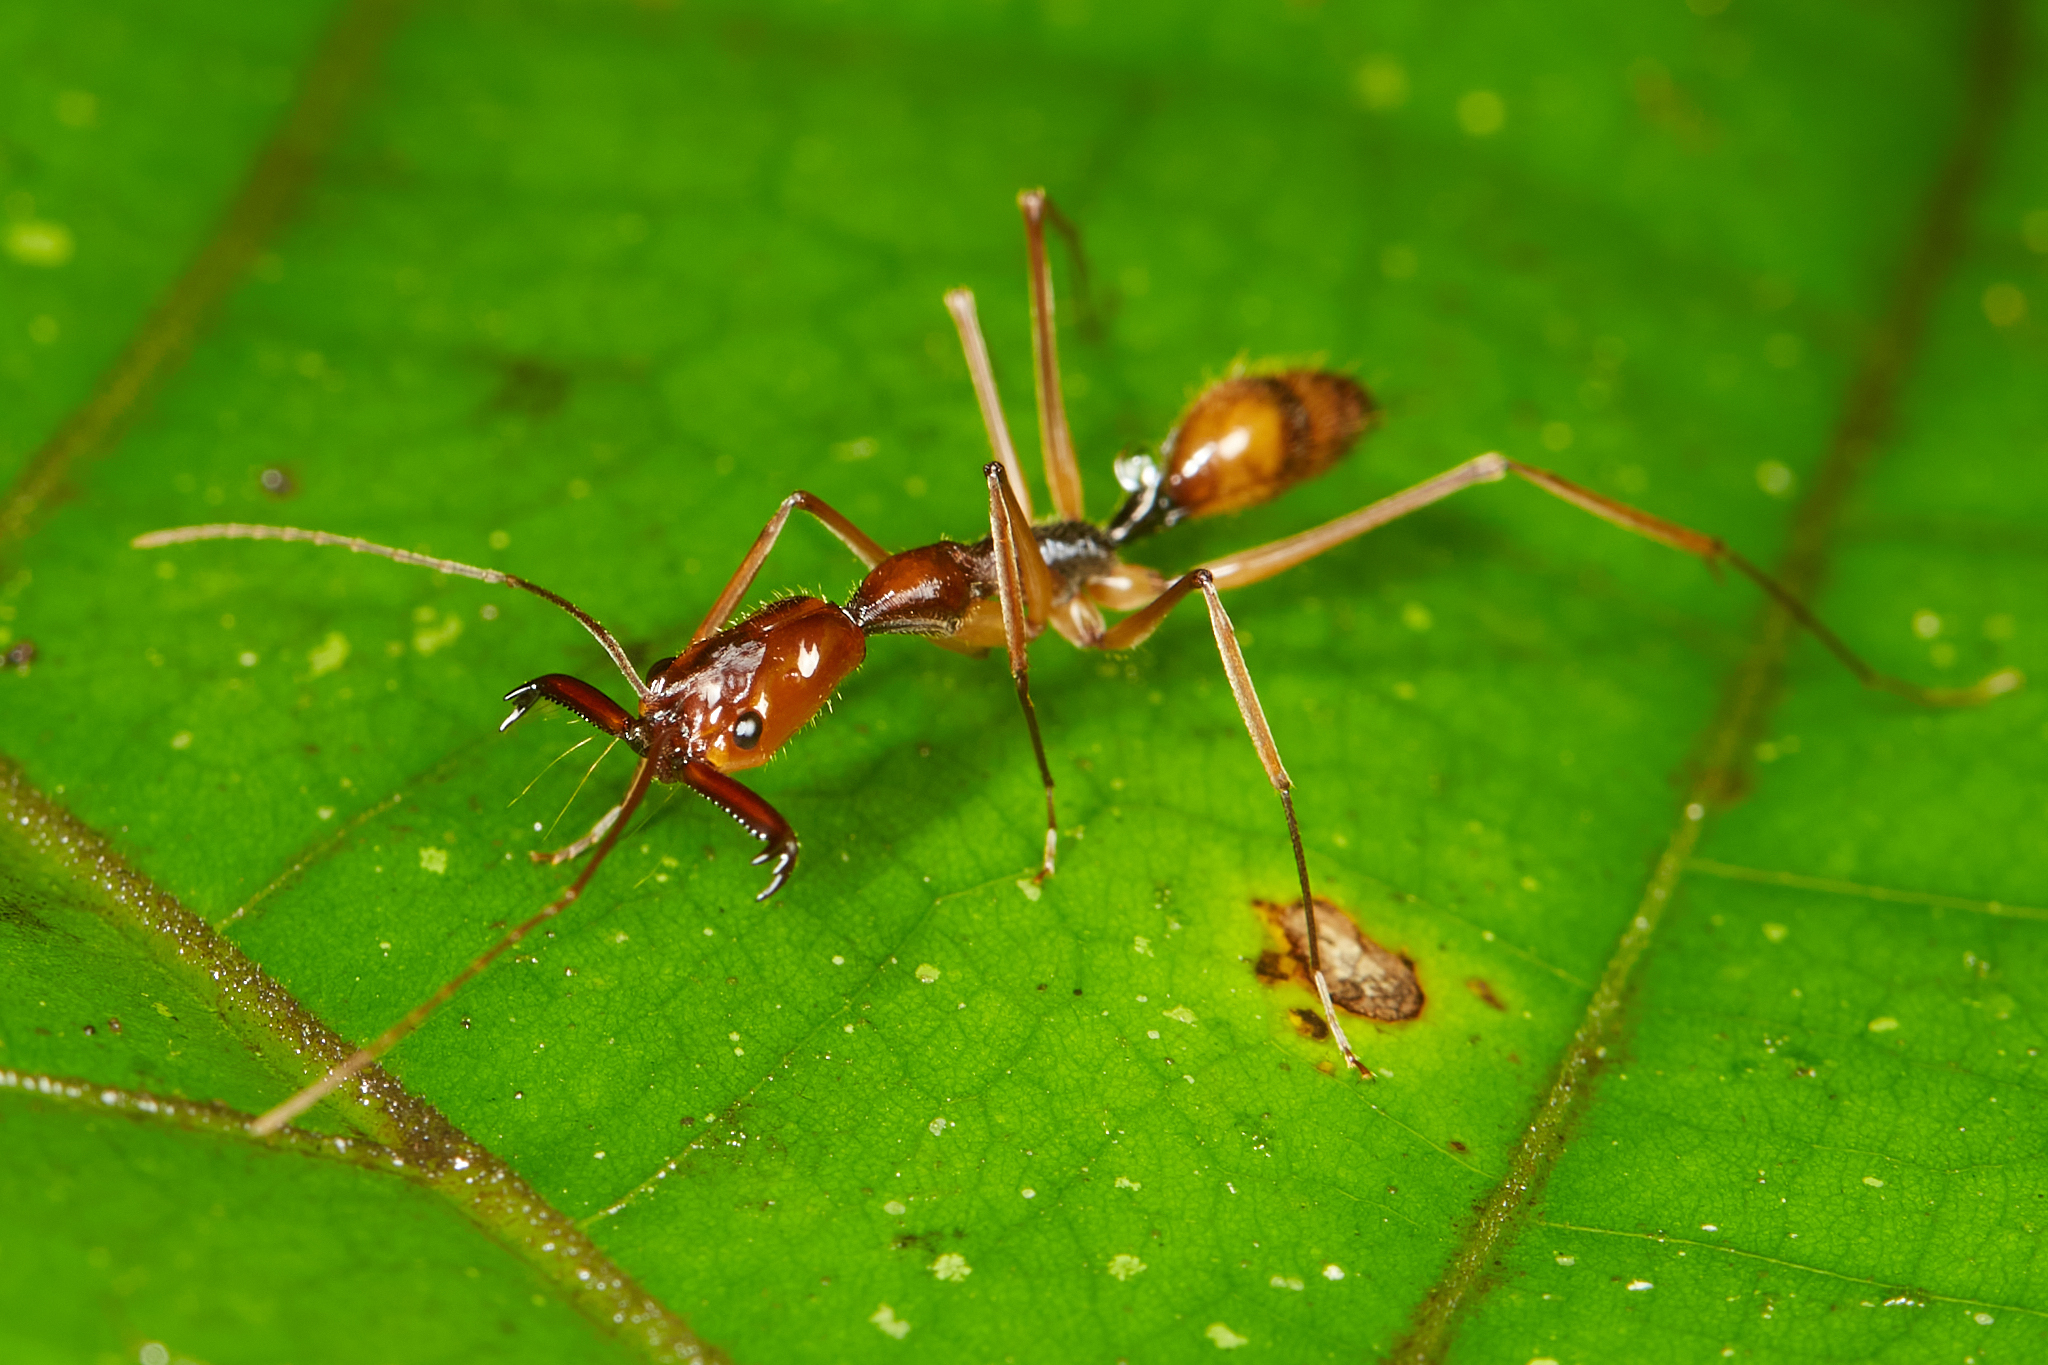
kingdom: Animalia
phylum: Arthropoda
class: Insecta
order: Hymenoptera
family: Formicidae
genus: Odontomachus
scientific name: Odontomachus hastatus
